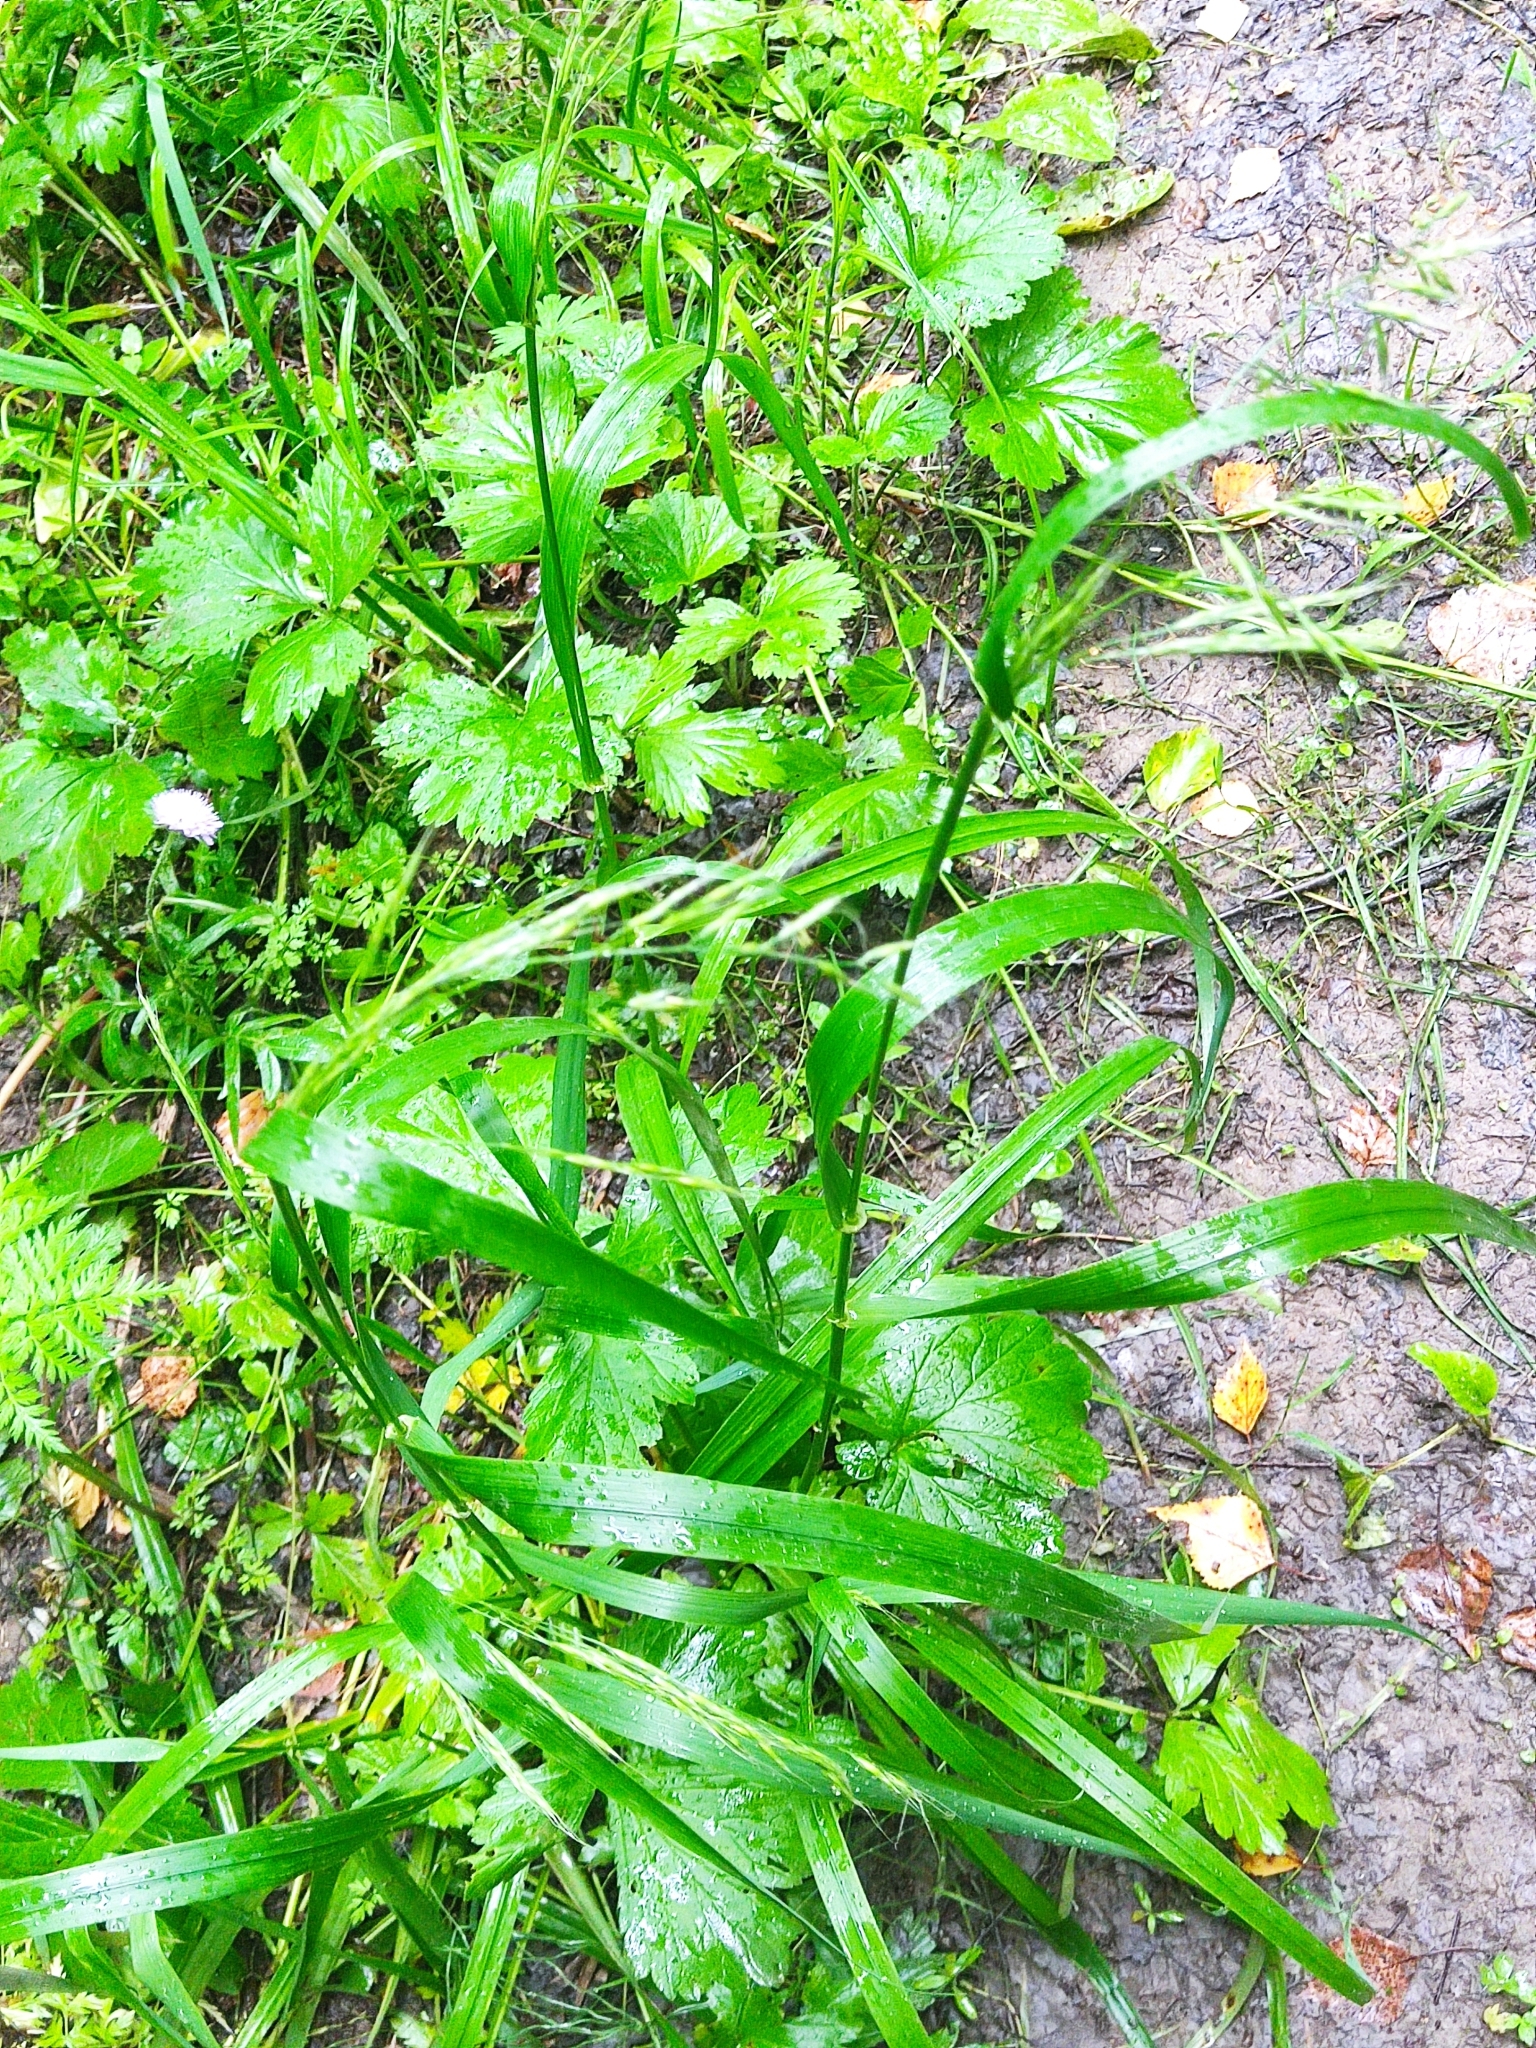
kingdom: Plantae
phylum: Tracheophyta
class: Liliopsida
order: Poales
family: Poaceae
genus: Lolium
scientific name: Lolium giganteum
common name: Giant fescue
